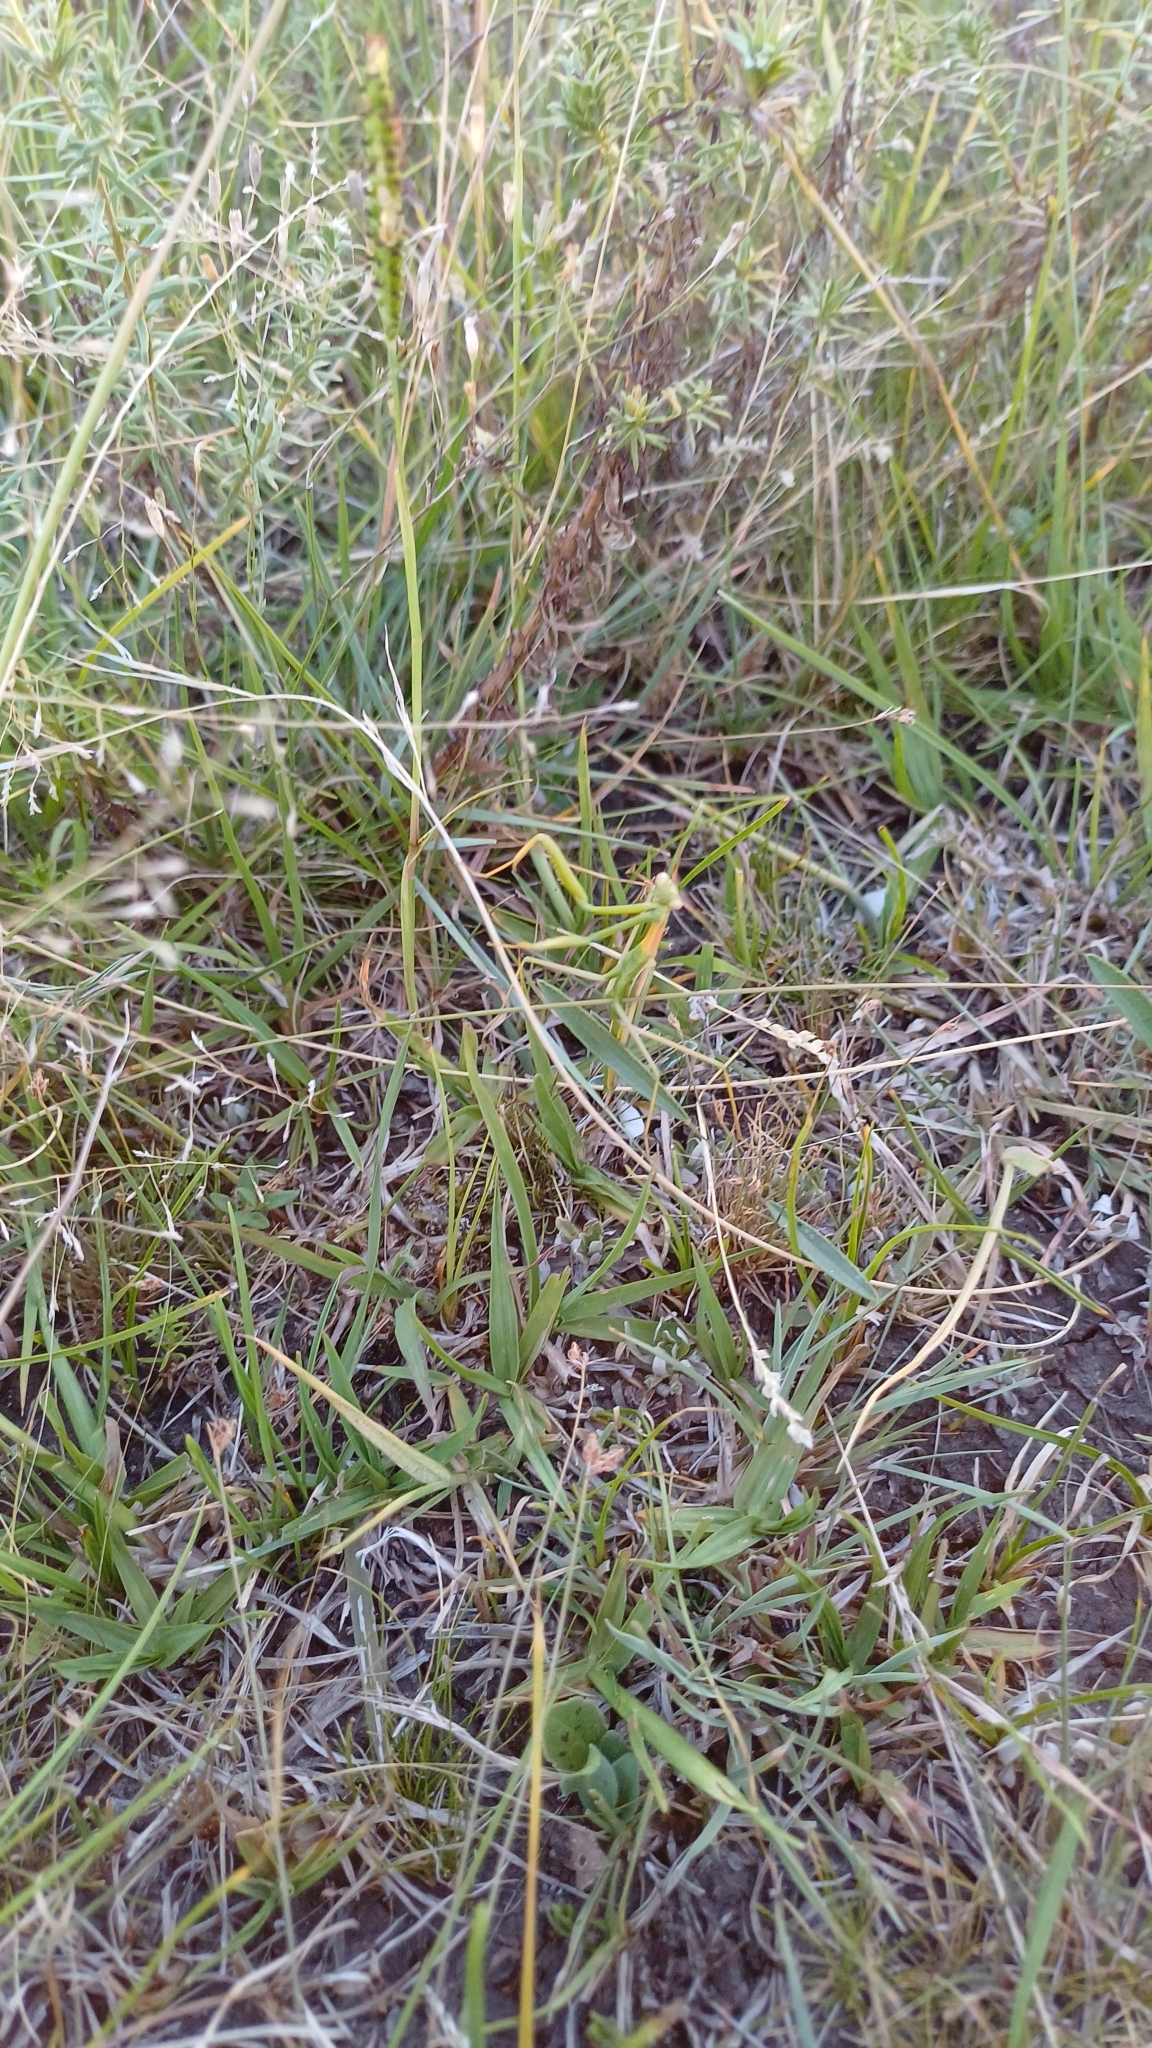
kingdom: Animalia
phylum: Arthropoda
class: Insecta
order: Mantodea
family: Coptopterygidae
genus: Coptopteryx
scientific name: Coptopteryx argentina
